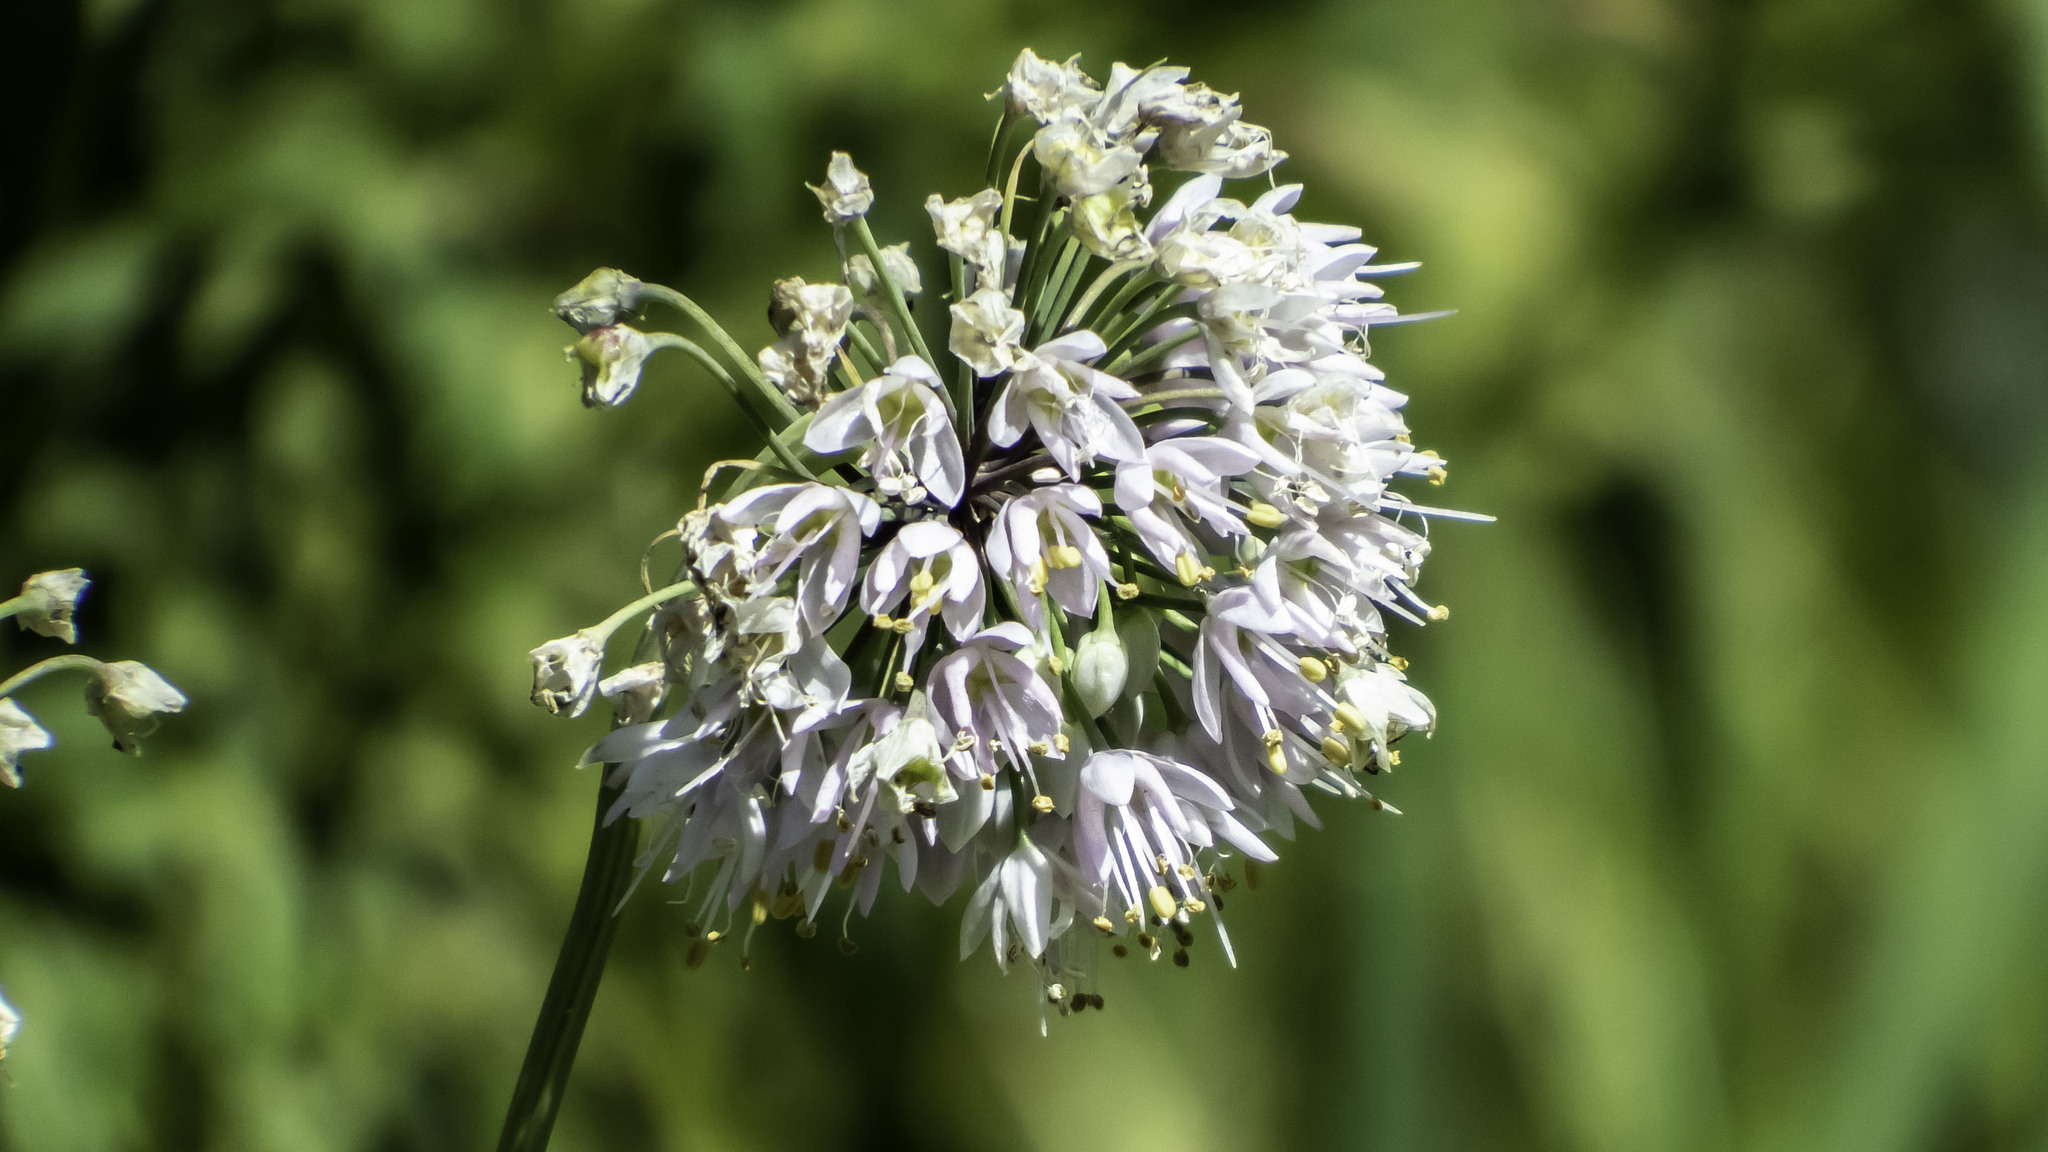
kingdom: Plantae
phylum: Tracheophyta
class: Liliopsida
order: Asparagales
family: Amaryllidaceae
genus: Allium
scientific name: Allium cernuum
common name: Nodding onion
